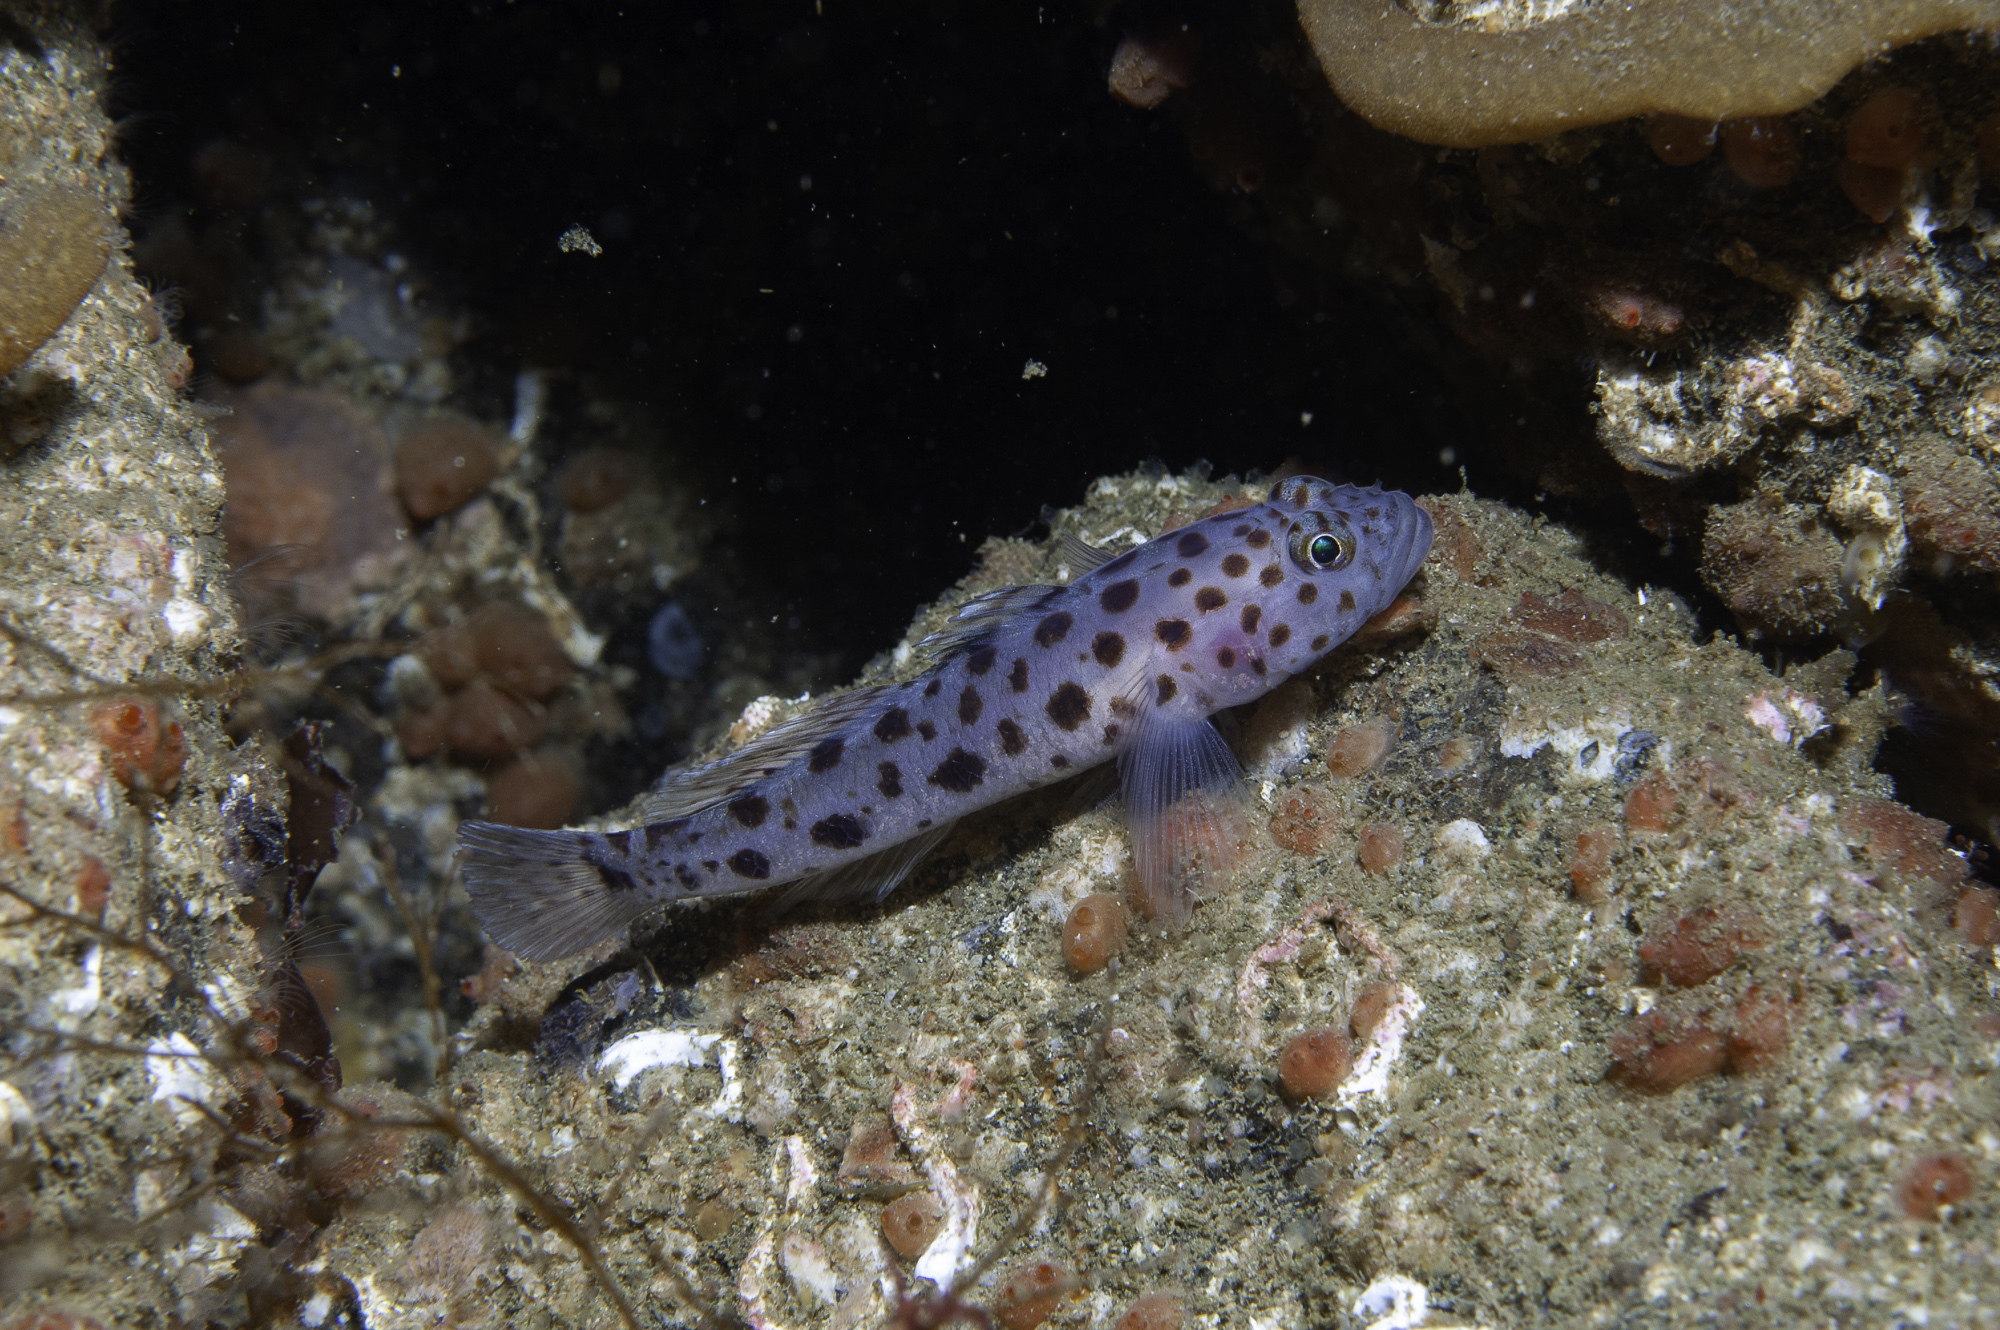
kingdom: Animalia
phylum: Chordata
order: Perciformes
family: Gobiidae
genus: Thorogobius
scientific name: Thorogobius ephippiatus
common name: Leopard-spotted goby
